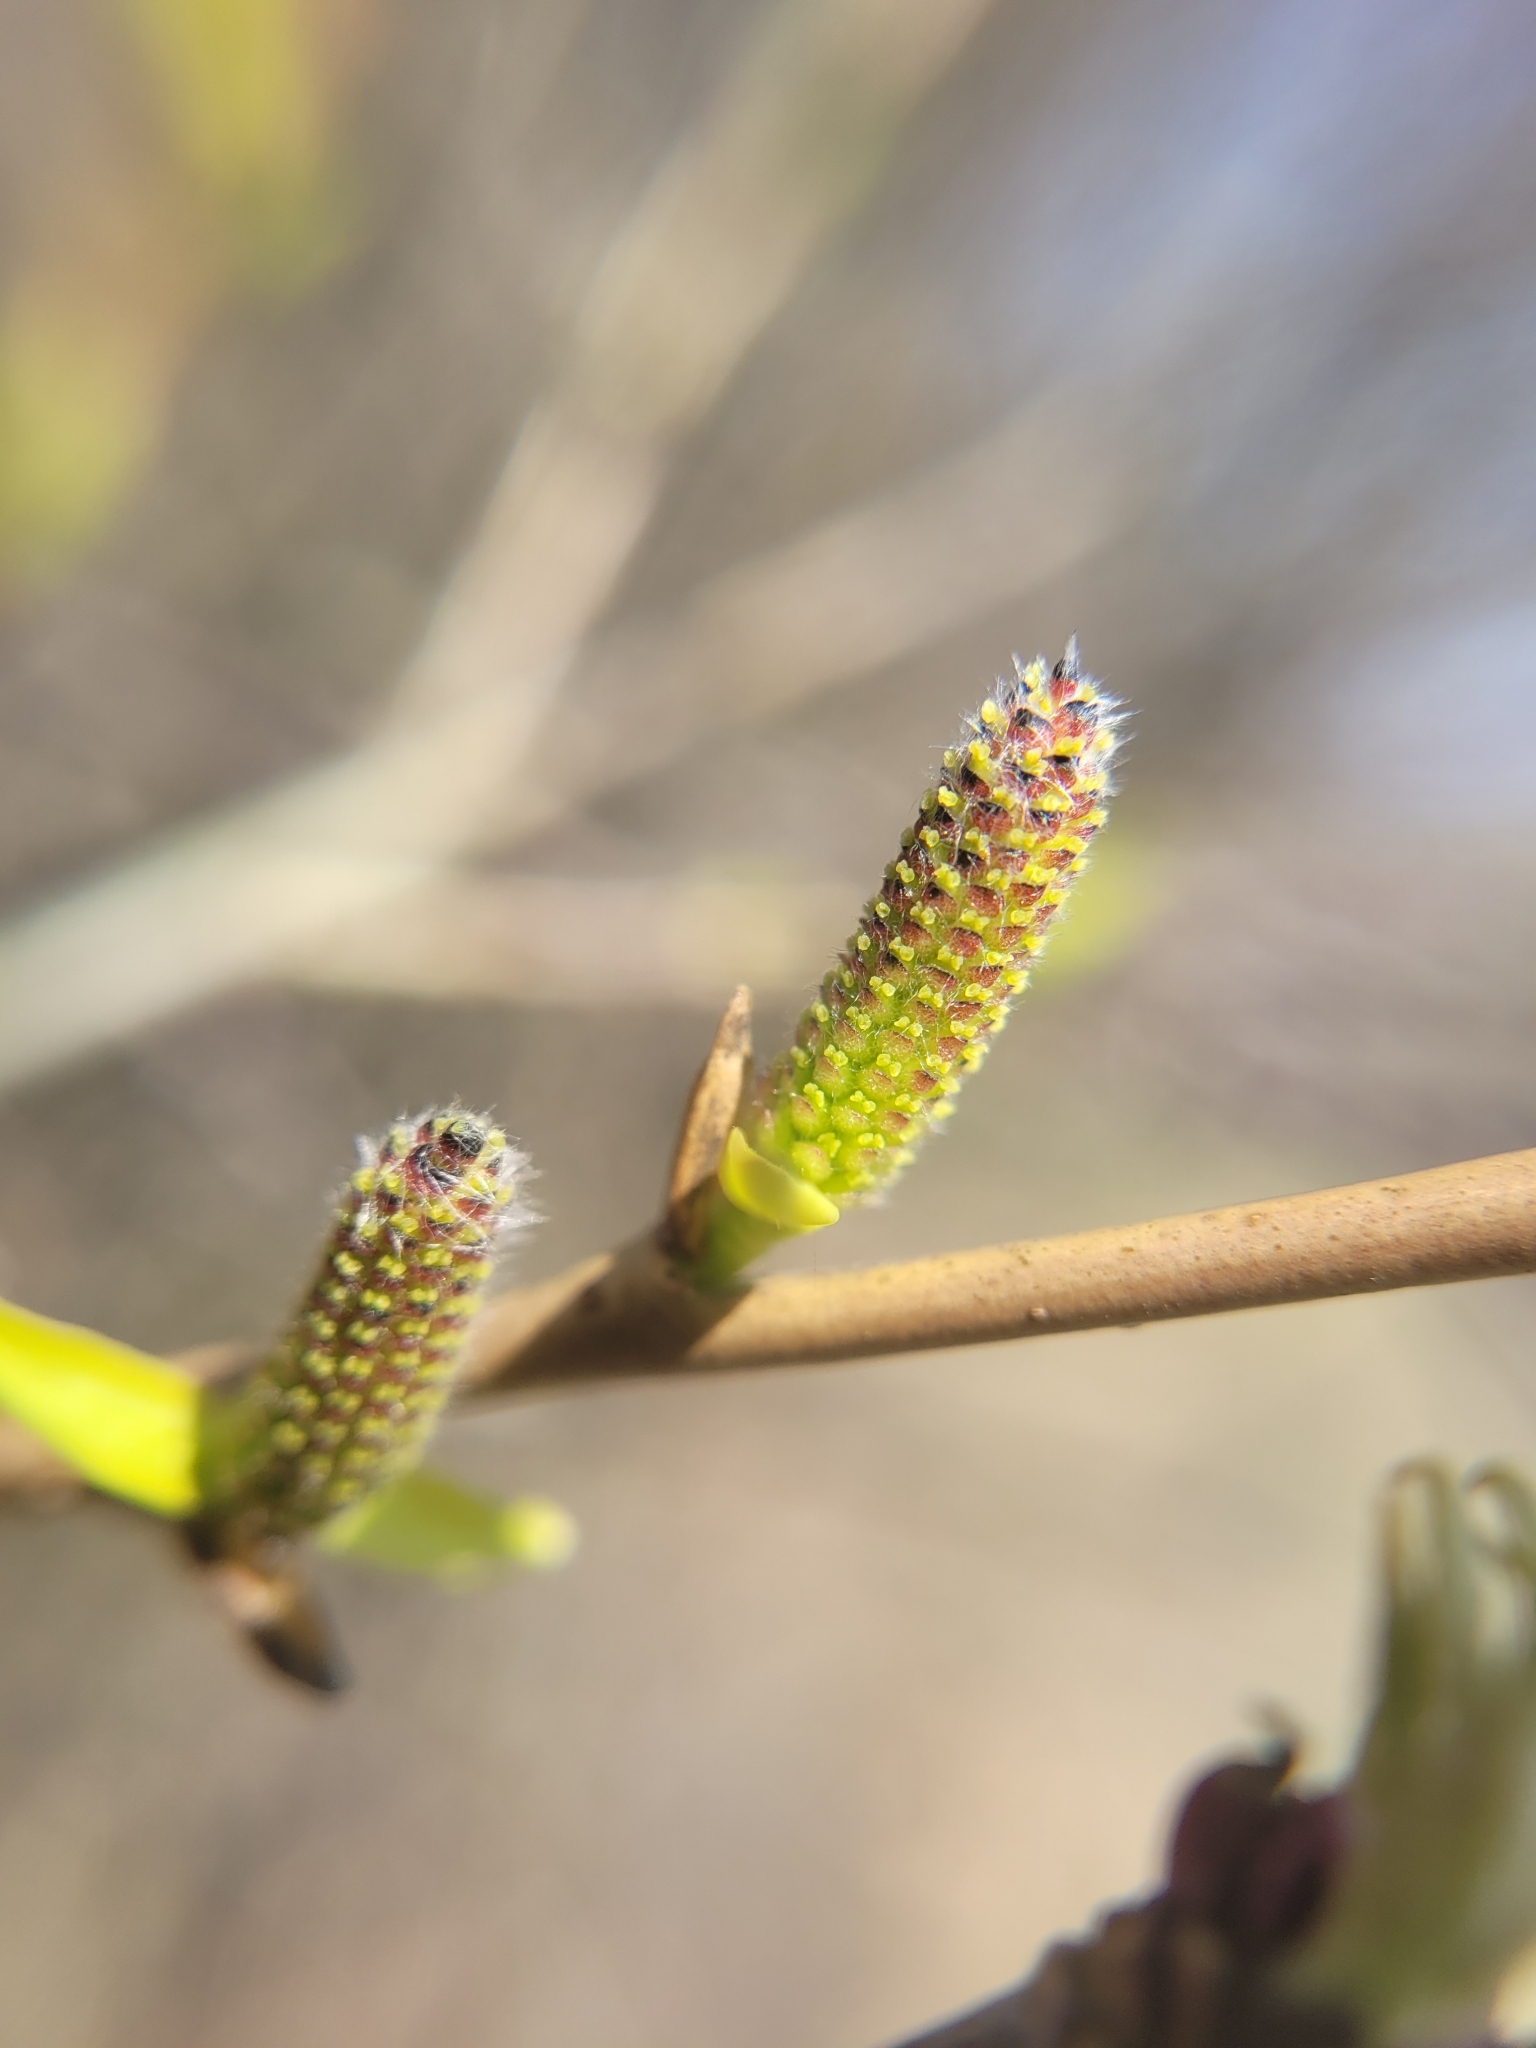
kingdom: Plantae
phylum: Tracheophyta
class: Magnoliopsida
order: Malpighiales
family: Salicaceae
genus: Salix
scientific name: Salix purpurea
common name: Purple willow
